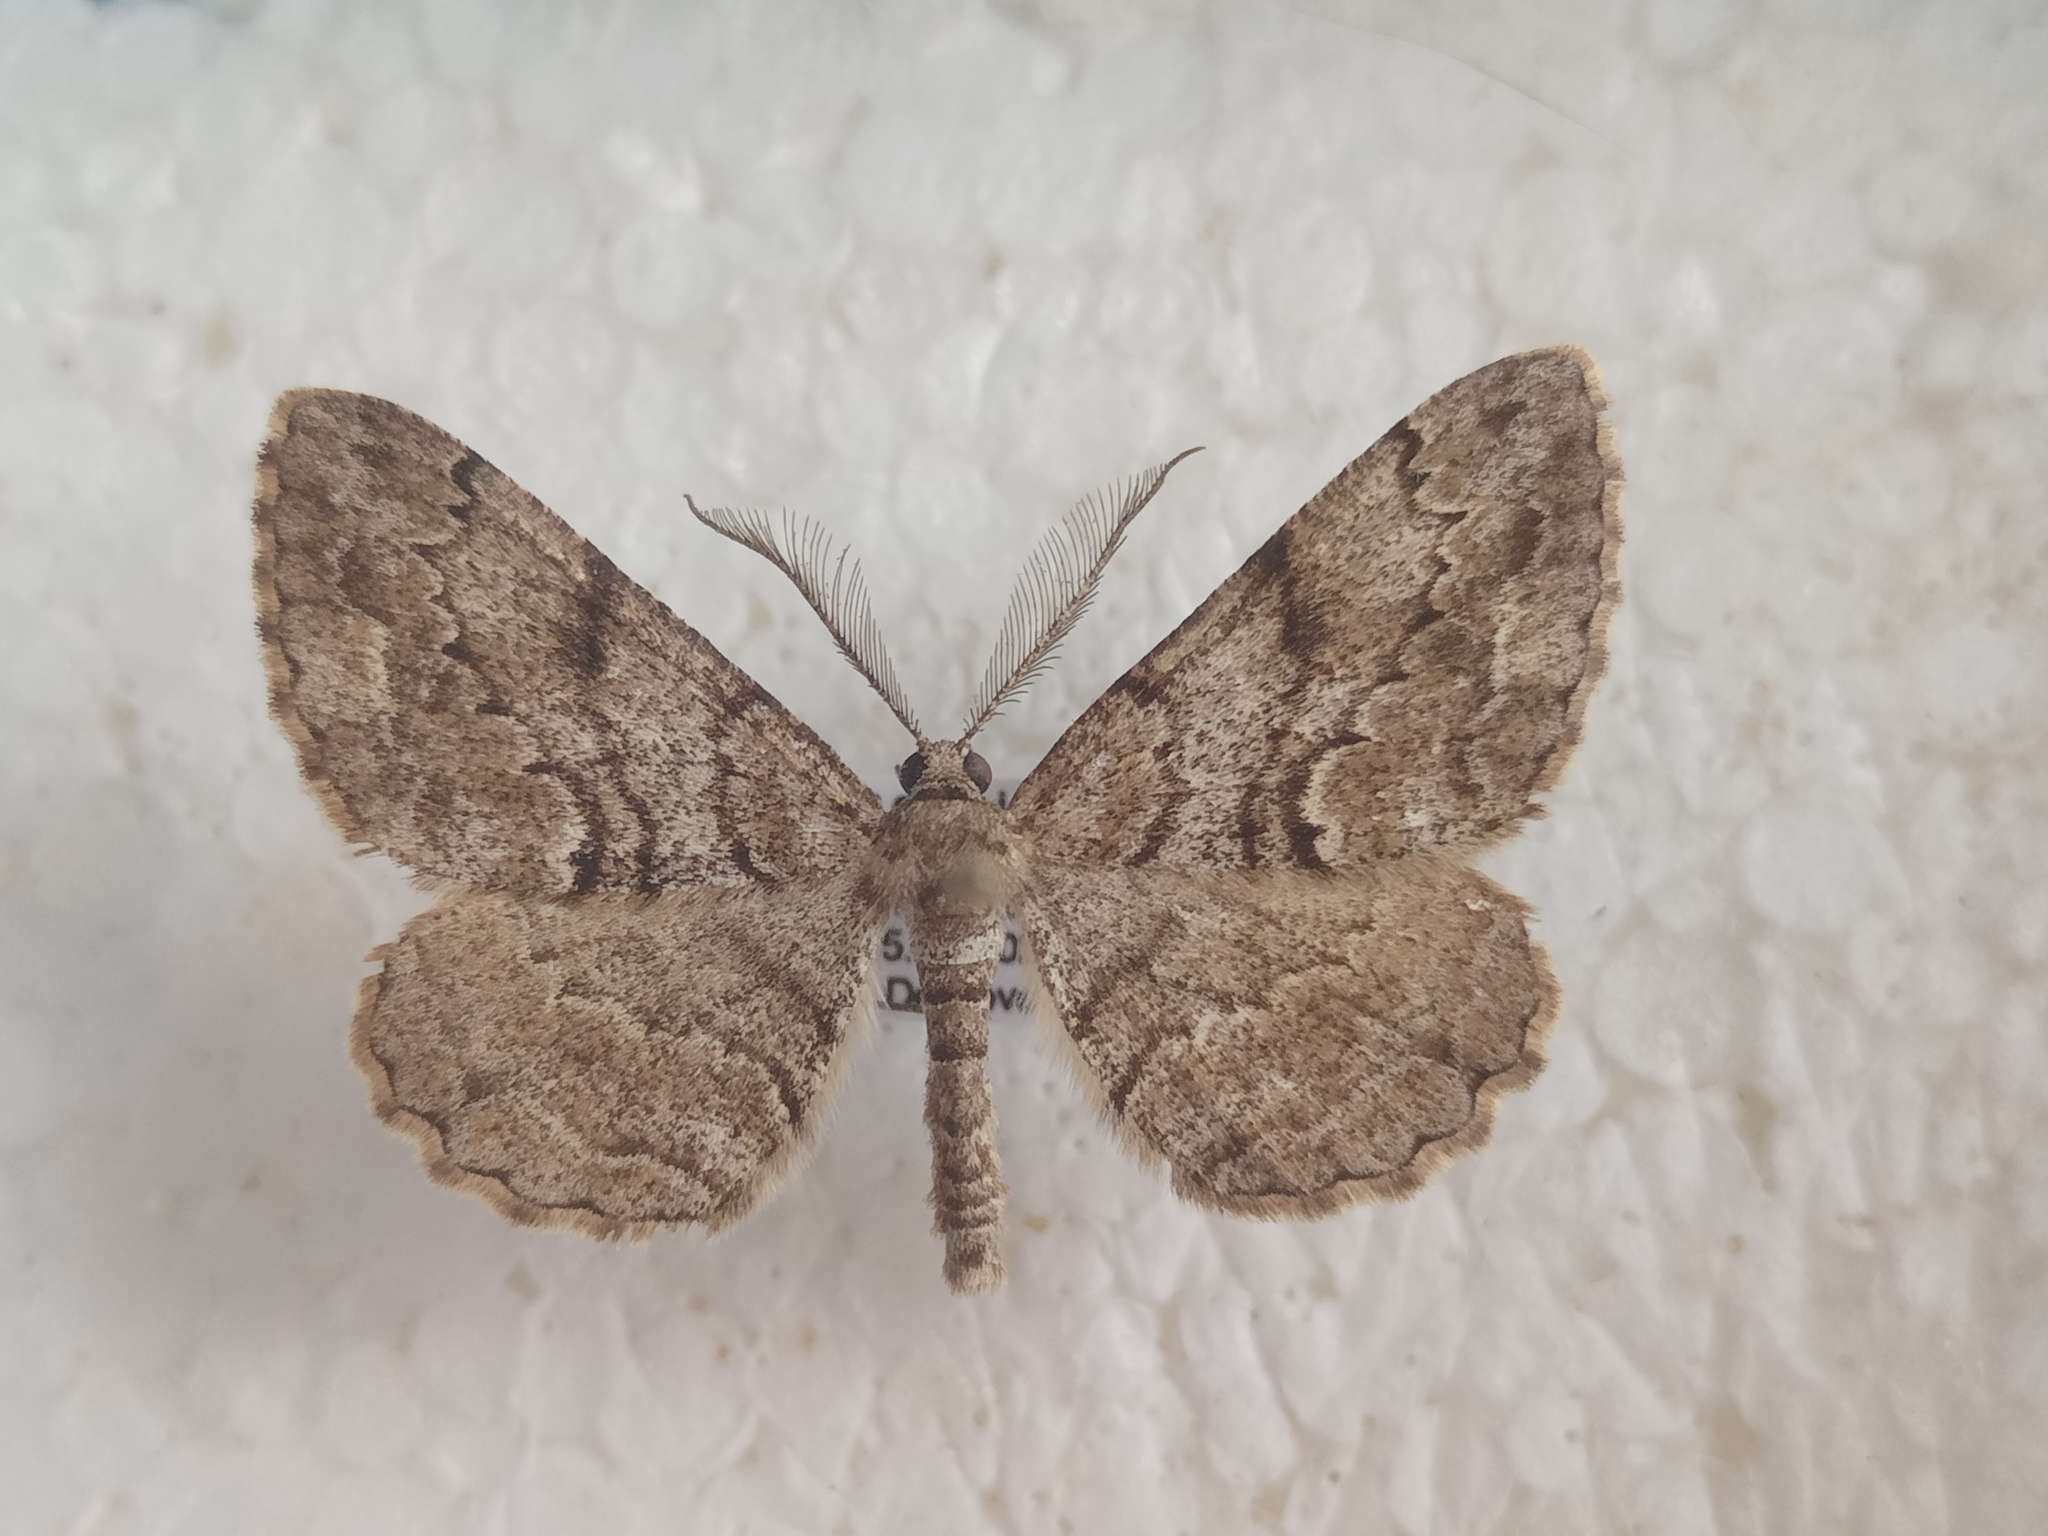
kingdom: Animalia
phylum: Arthropoda
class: Insecta
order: Lepidoptera
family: Geometridae
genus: Peribatodes
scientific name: Peribatodes secundaria
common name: Feathered beauty
